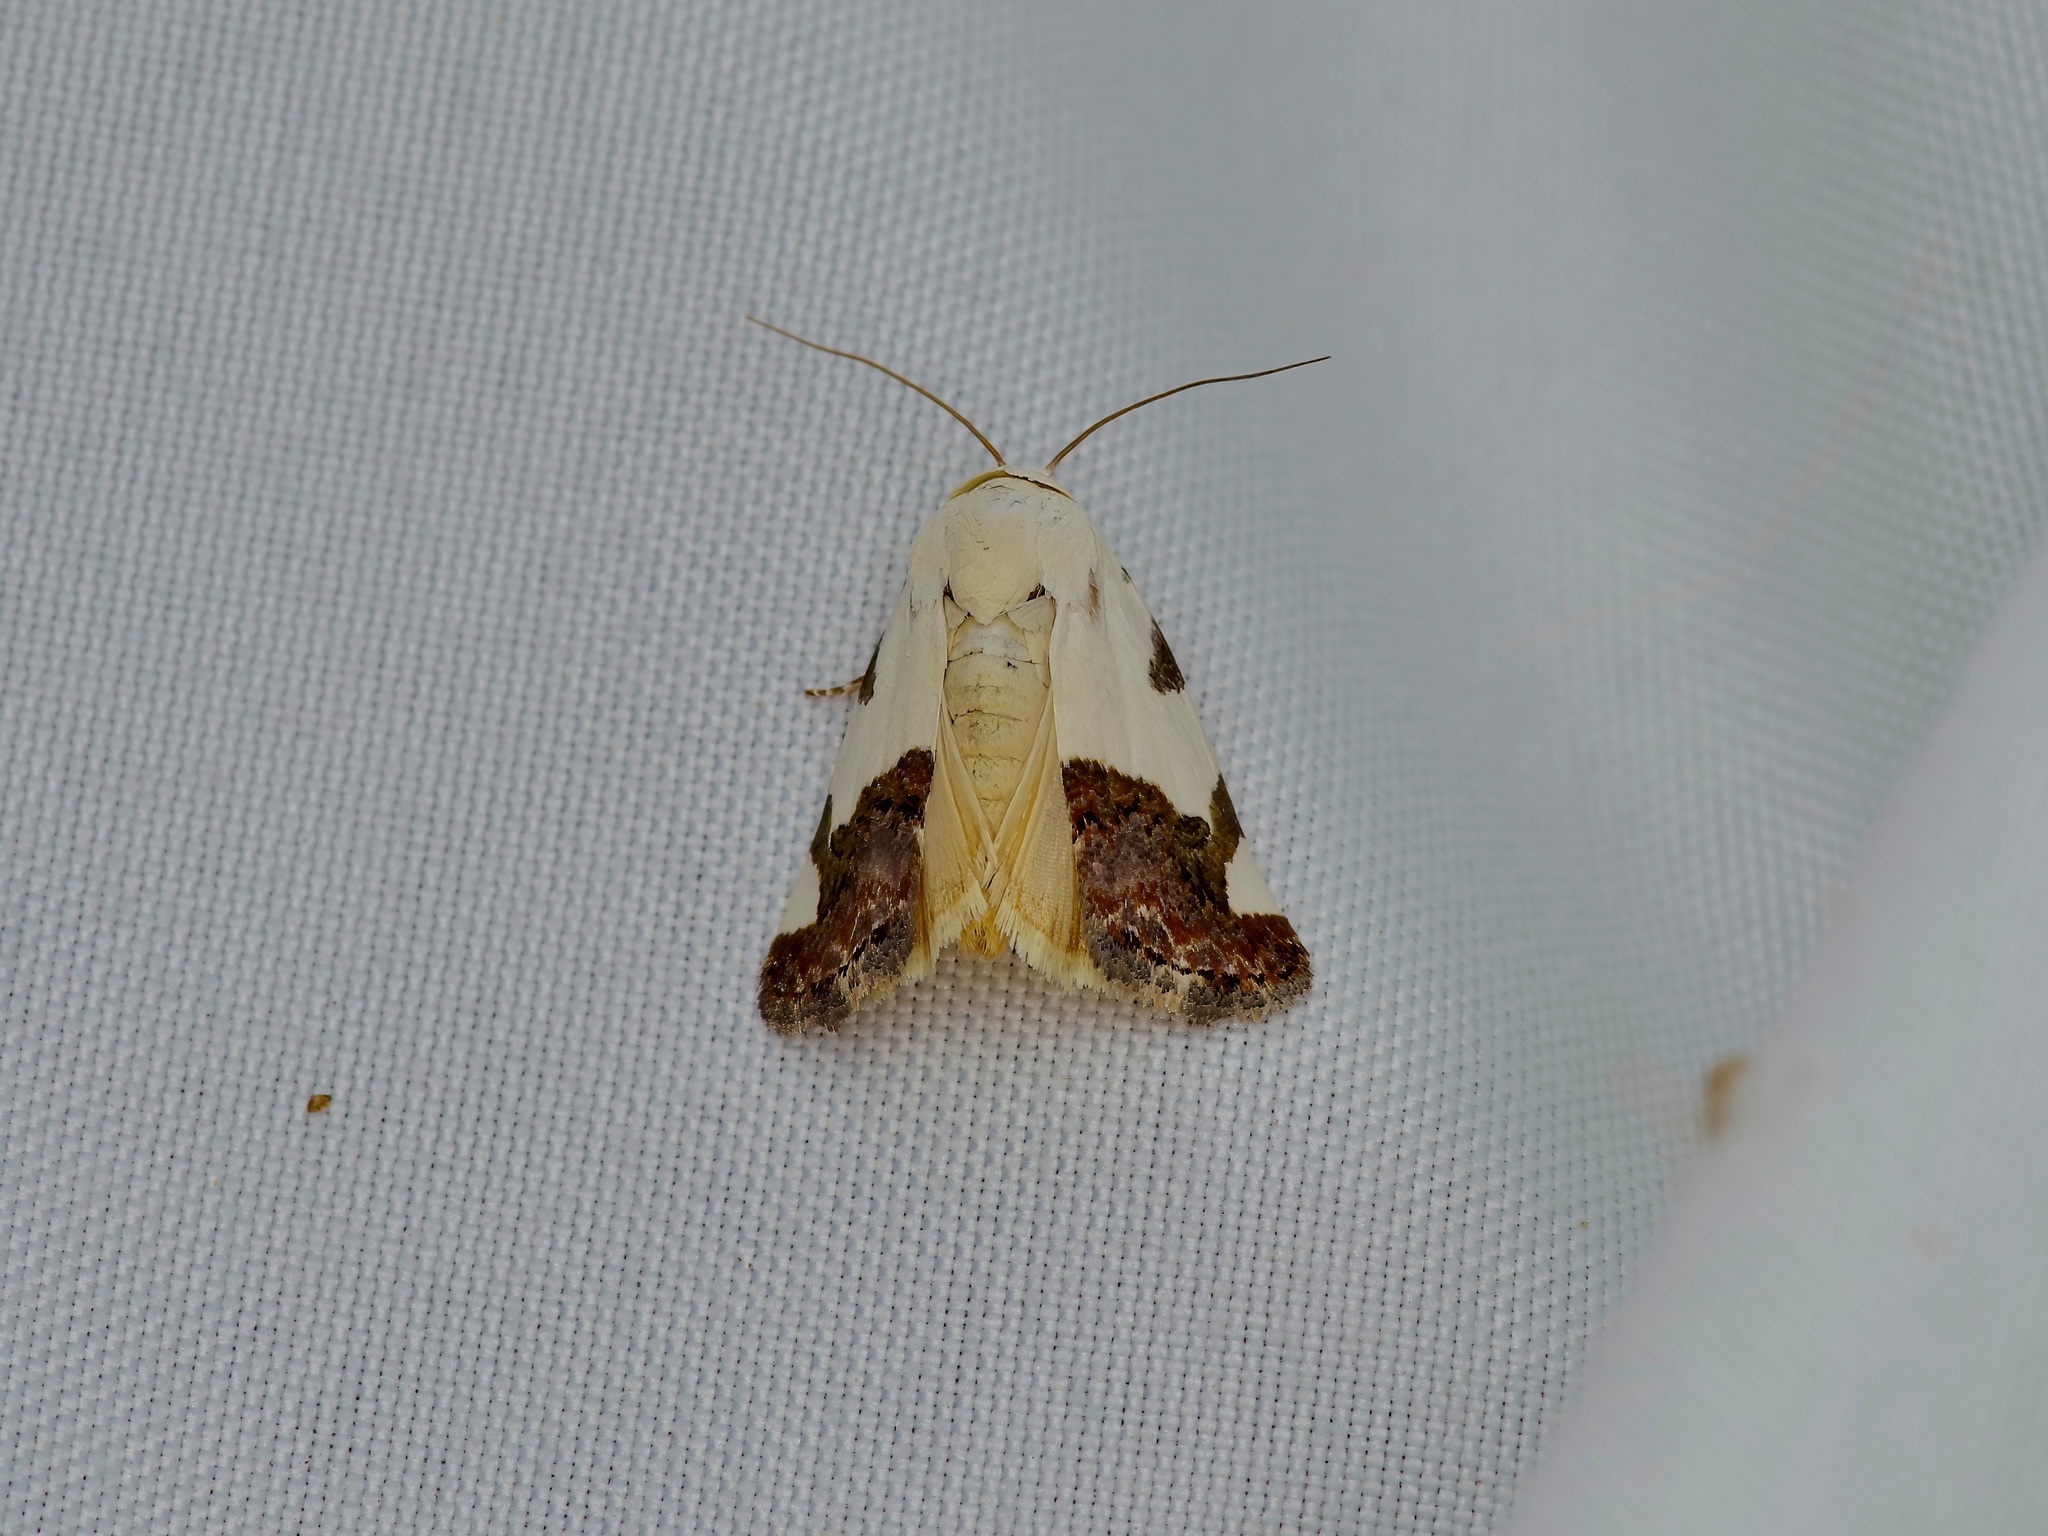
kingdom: Animalia
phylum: Arthropoda
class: Insecta
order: Lepidoptera
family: Noctuidae
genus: Acontia
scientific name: Acontia Tarache tetragona
